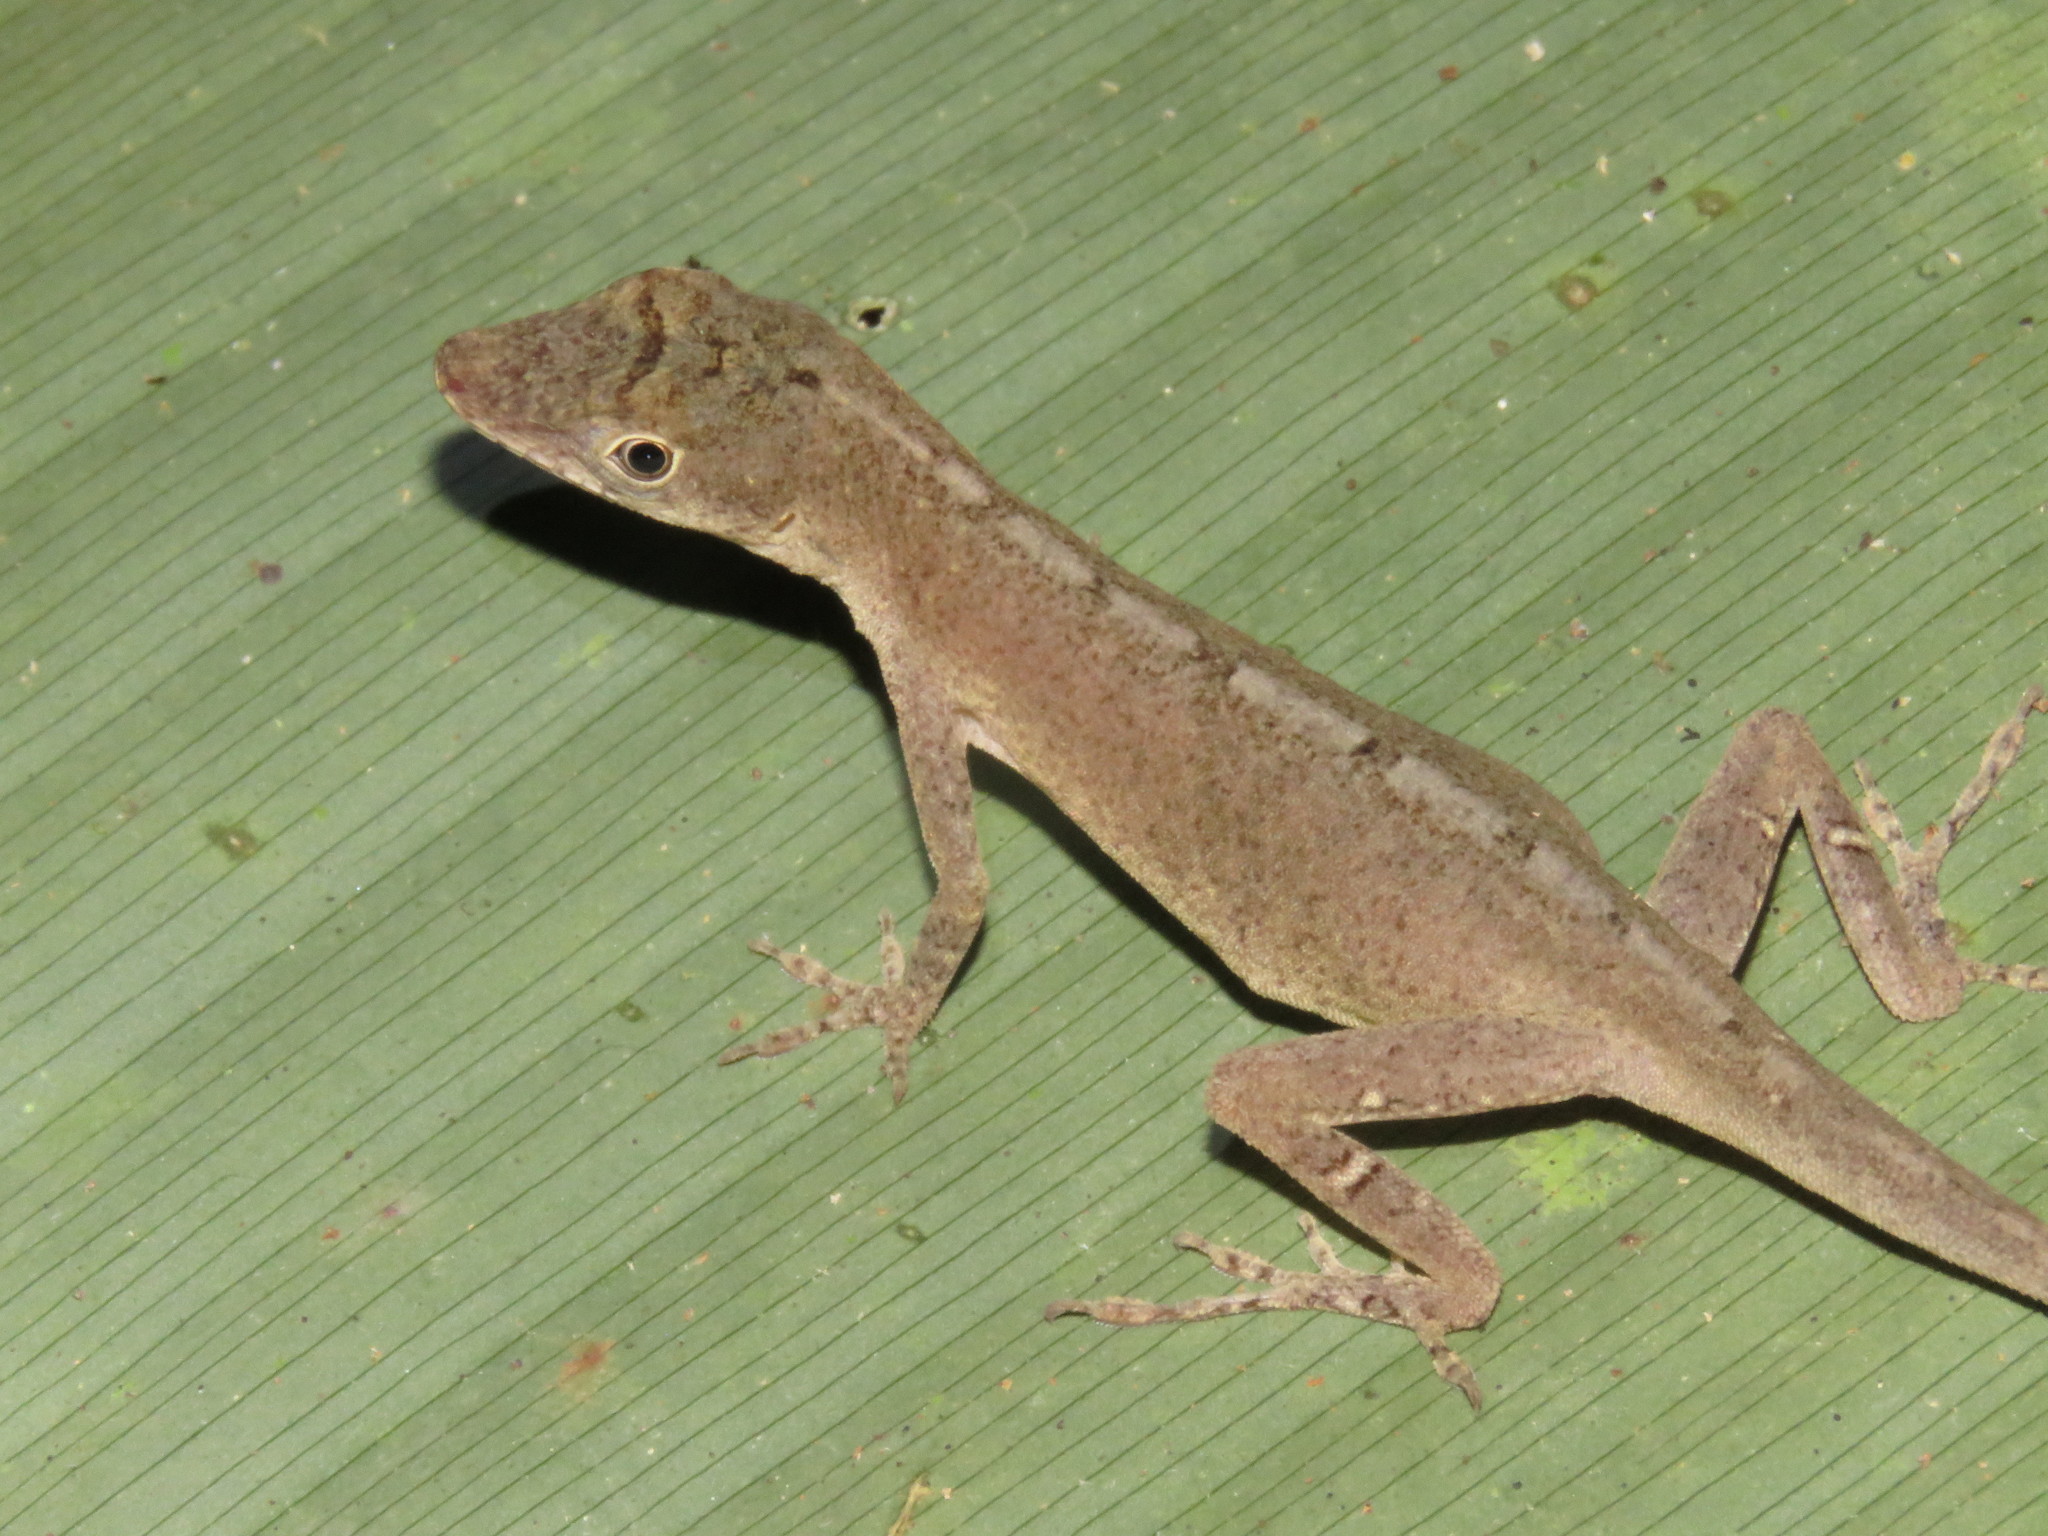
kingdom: Animalia
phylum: Chordata
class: Squamata
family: Dactyloidae
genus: Anolis
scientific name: Anolis fuscoauratus
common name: Brown-eared anole
